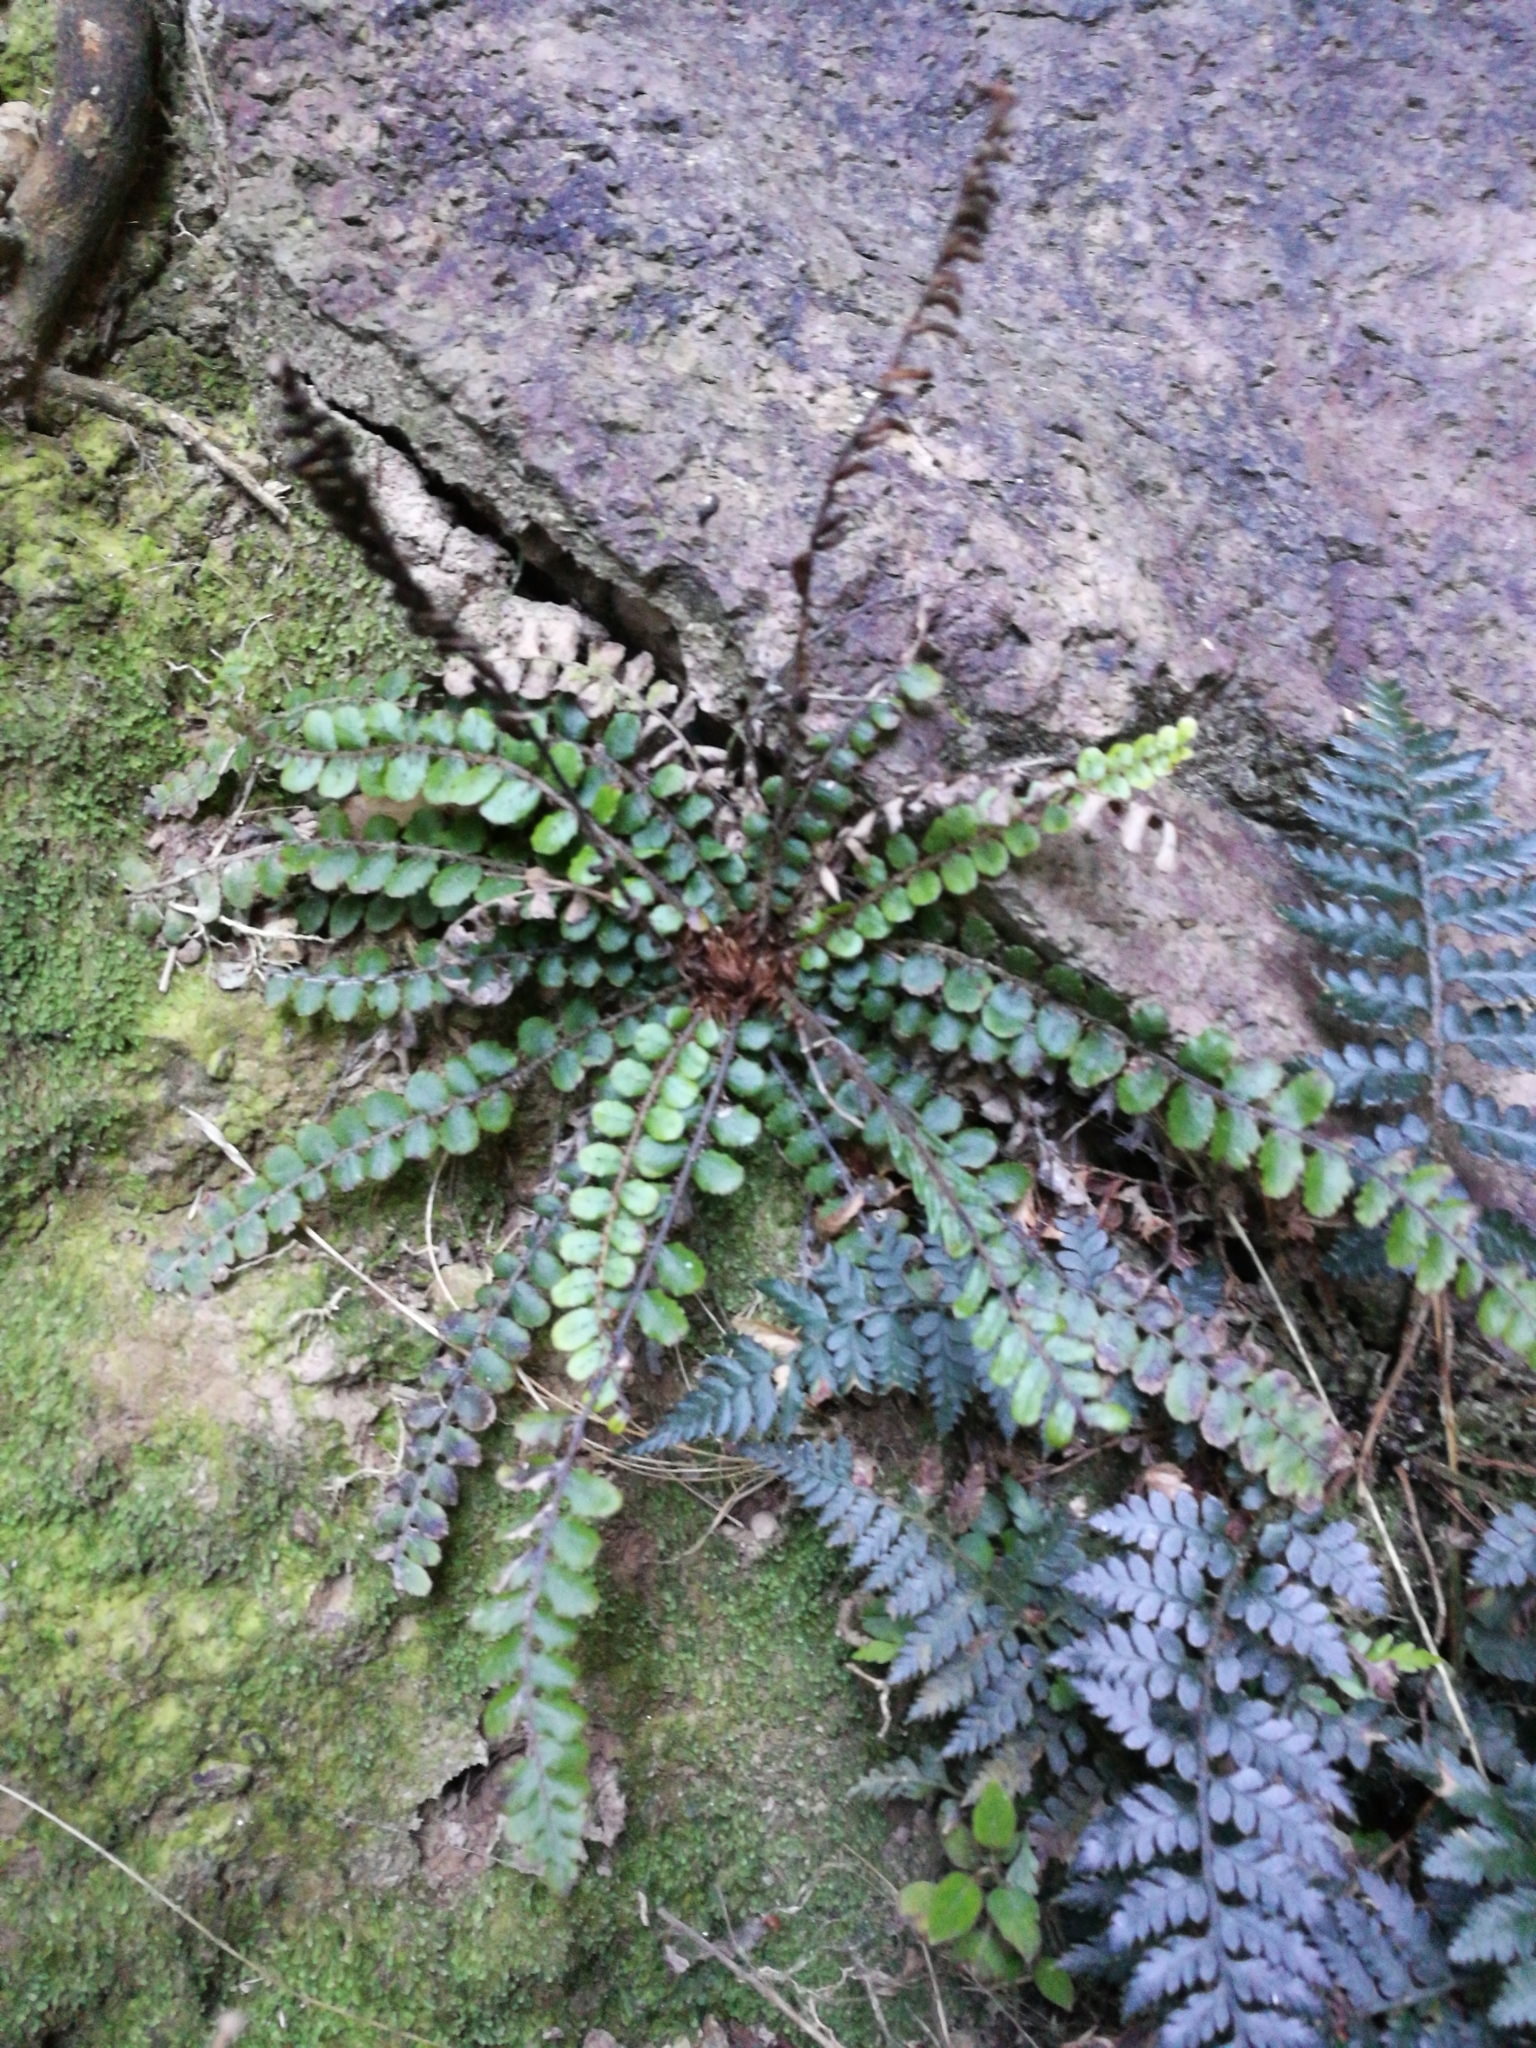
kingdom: Plantae
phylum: Tracheophyta
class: Polypodiopsida
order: Polypodiales
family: Blechnaceae
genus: Cranfillia
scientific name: Cranfillia fluviatilis
